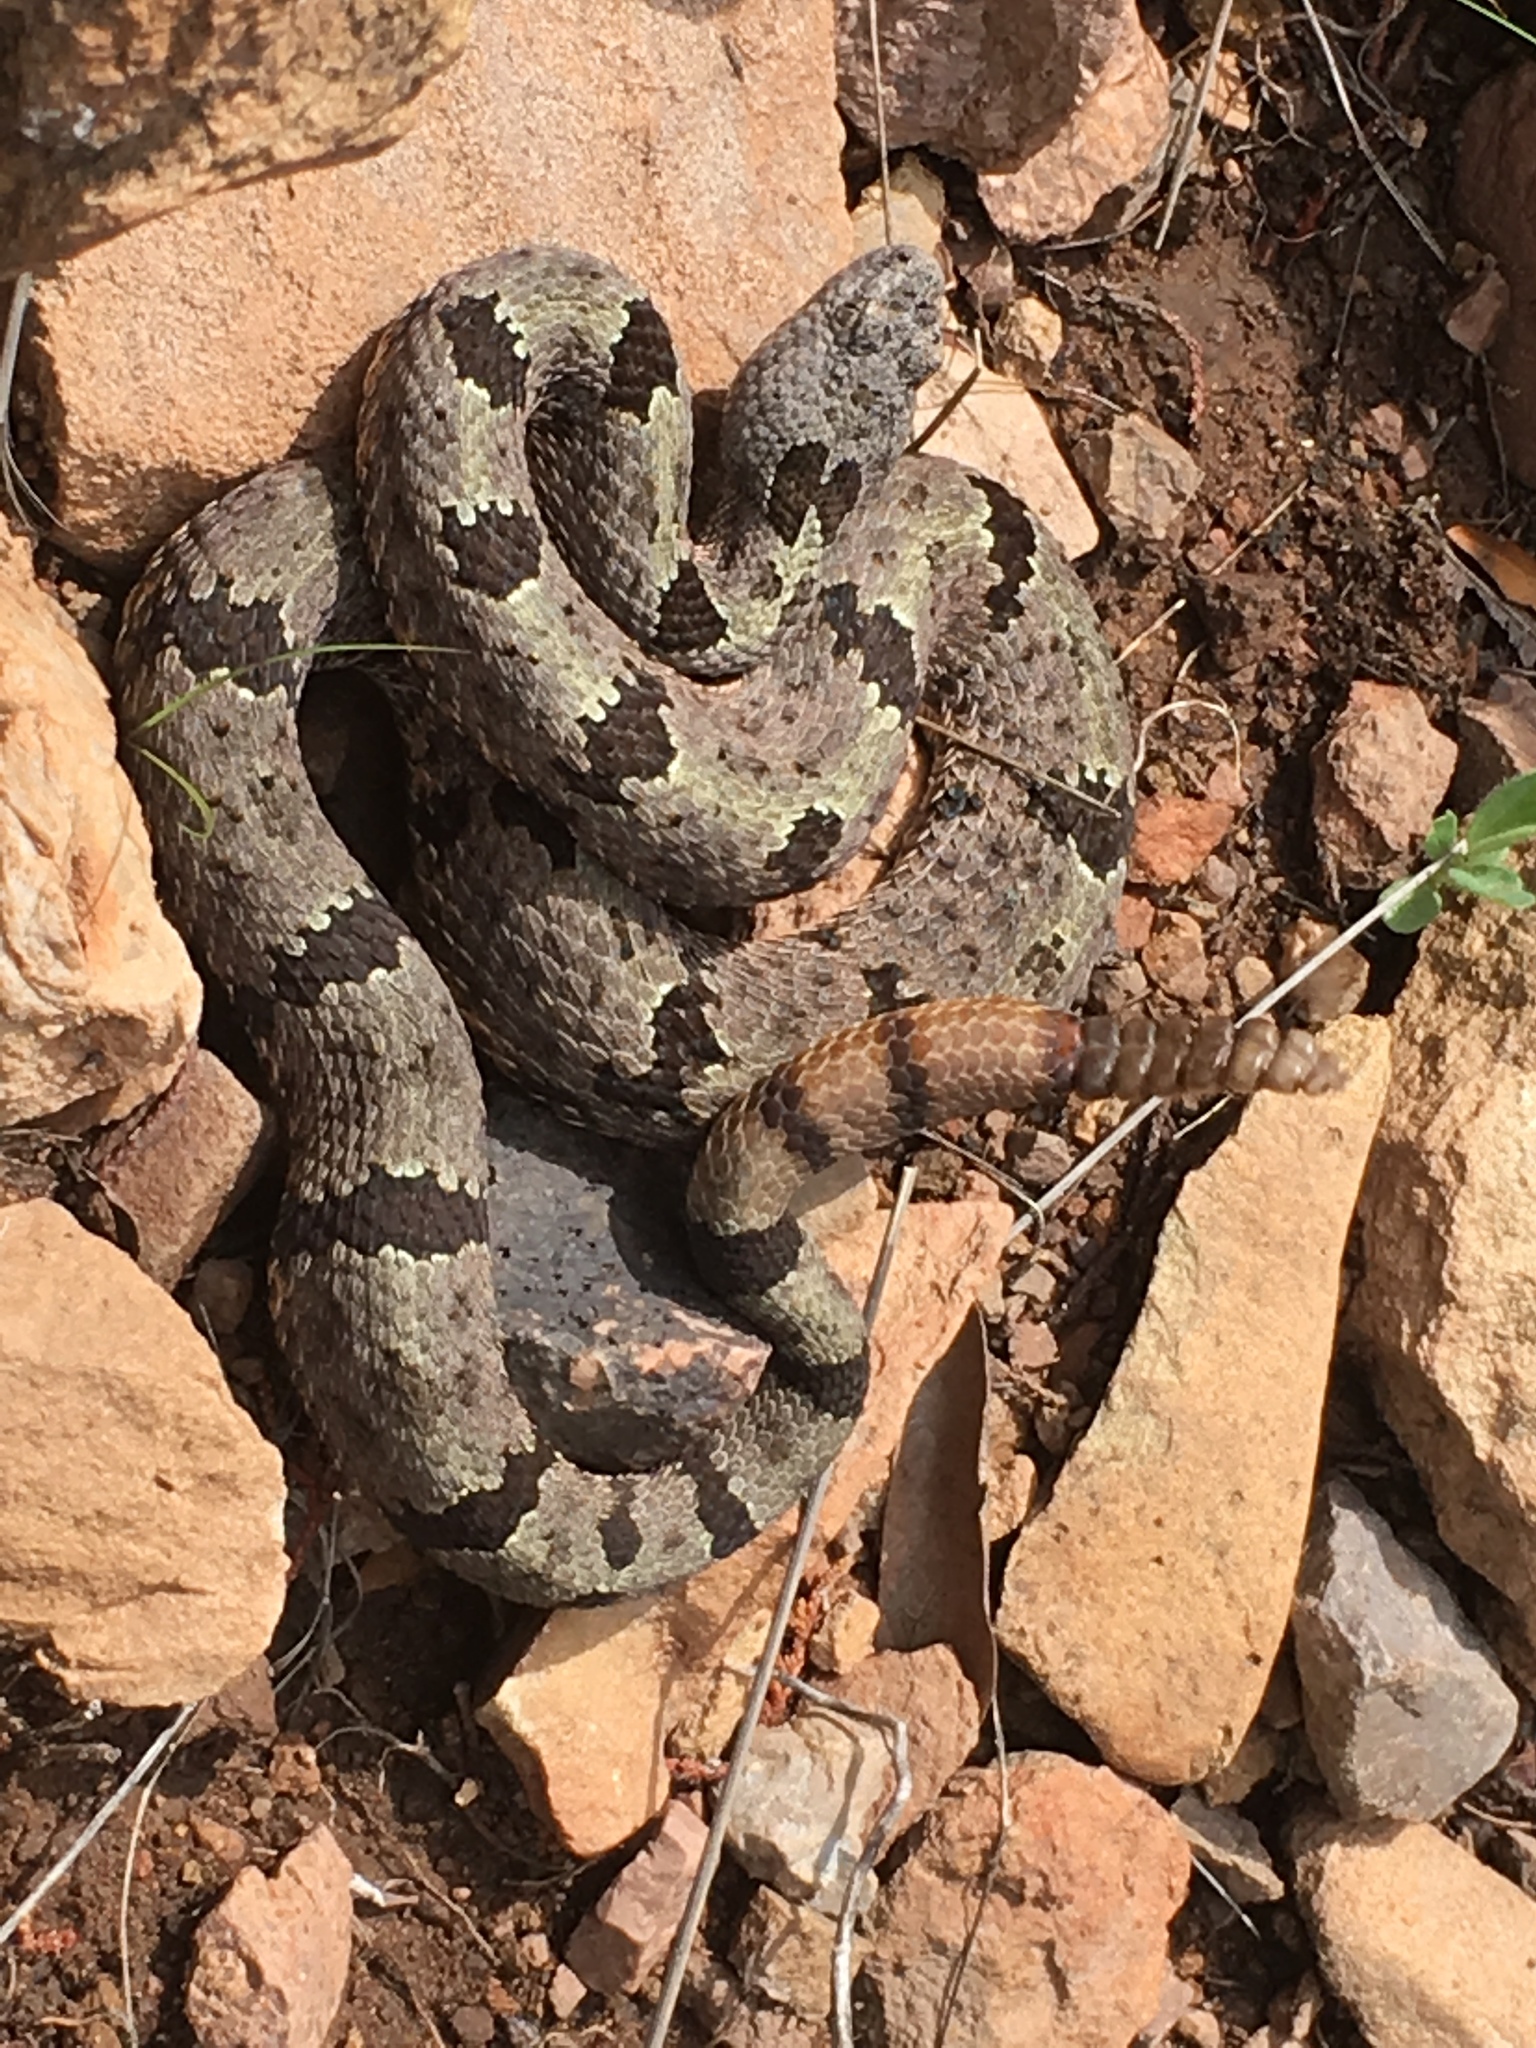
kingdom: Animalia
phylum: Chordata
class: Squamata
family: Viperidae
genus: Crotalus
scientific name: Crotalus lepidus
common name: Rock rattlesnake
